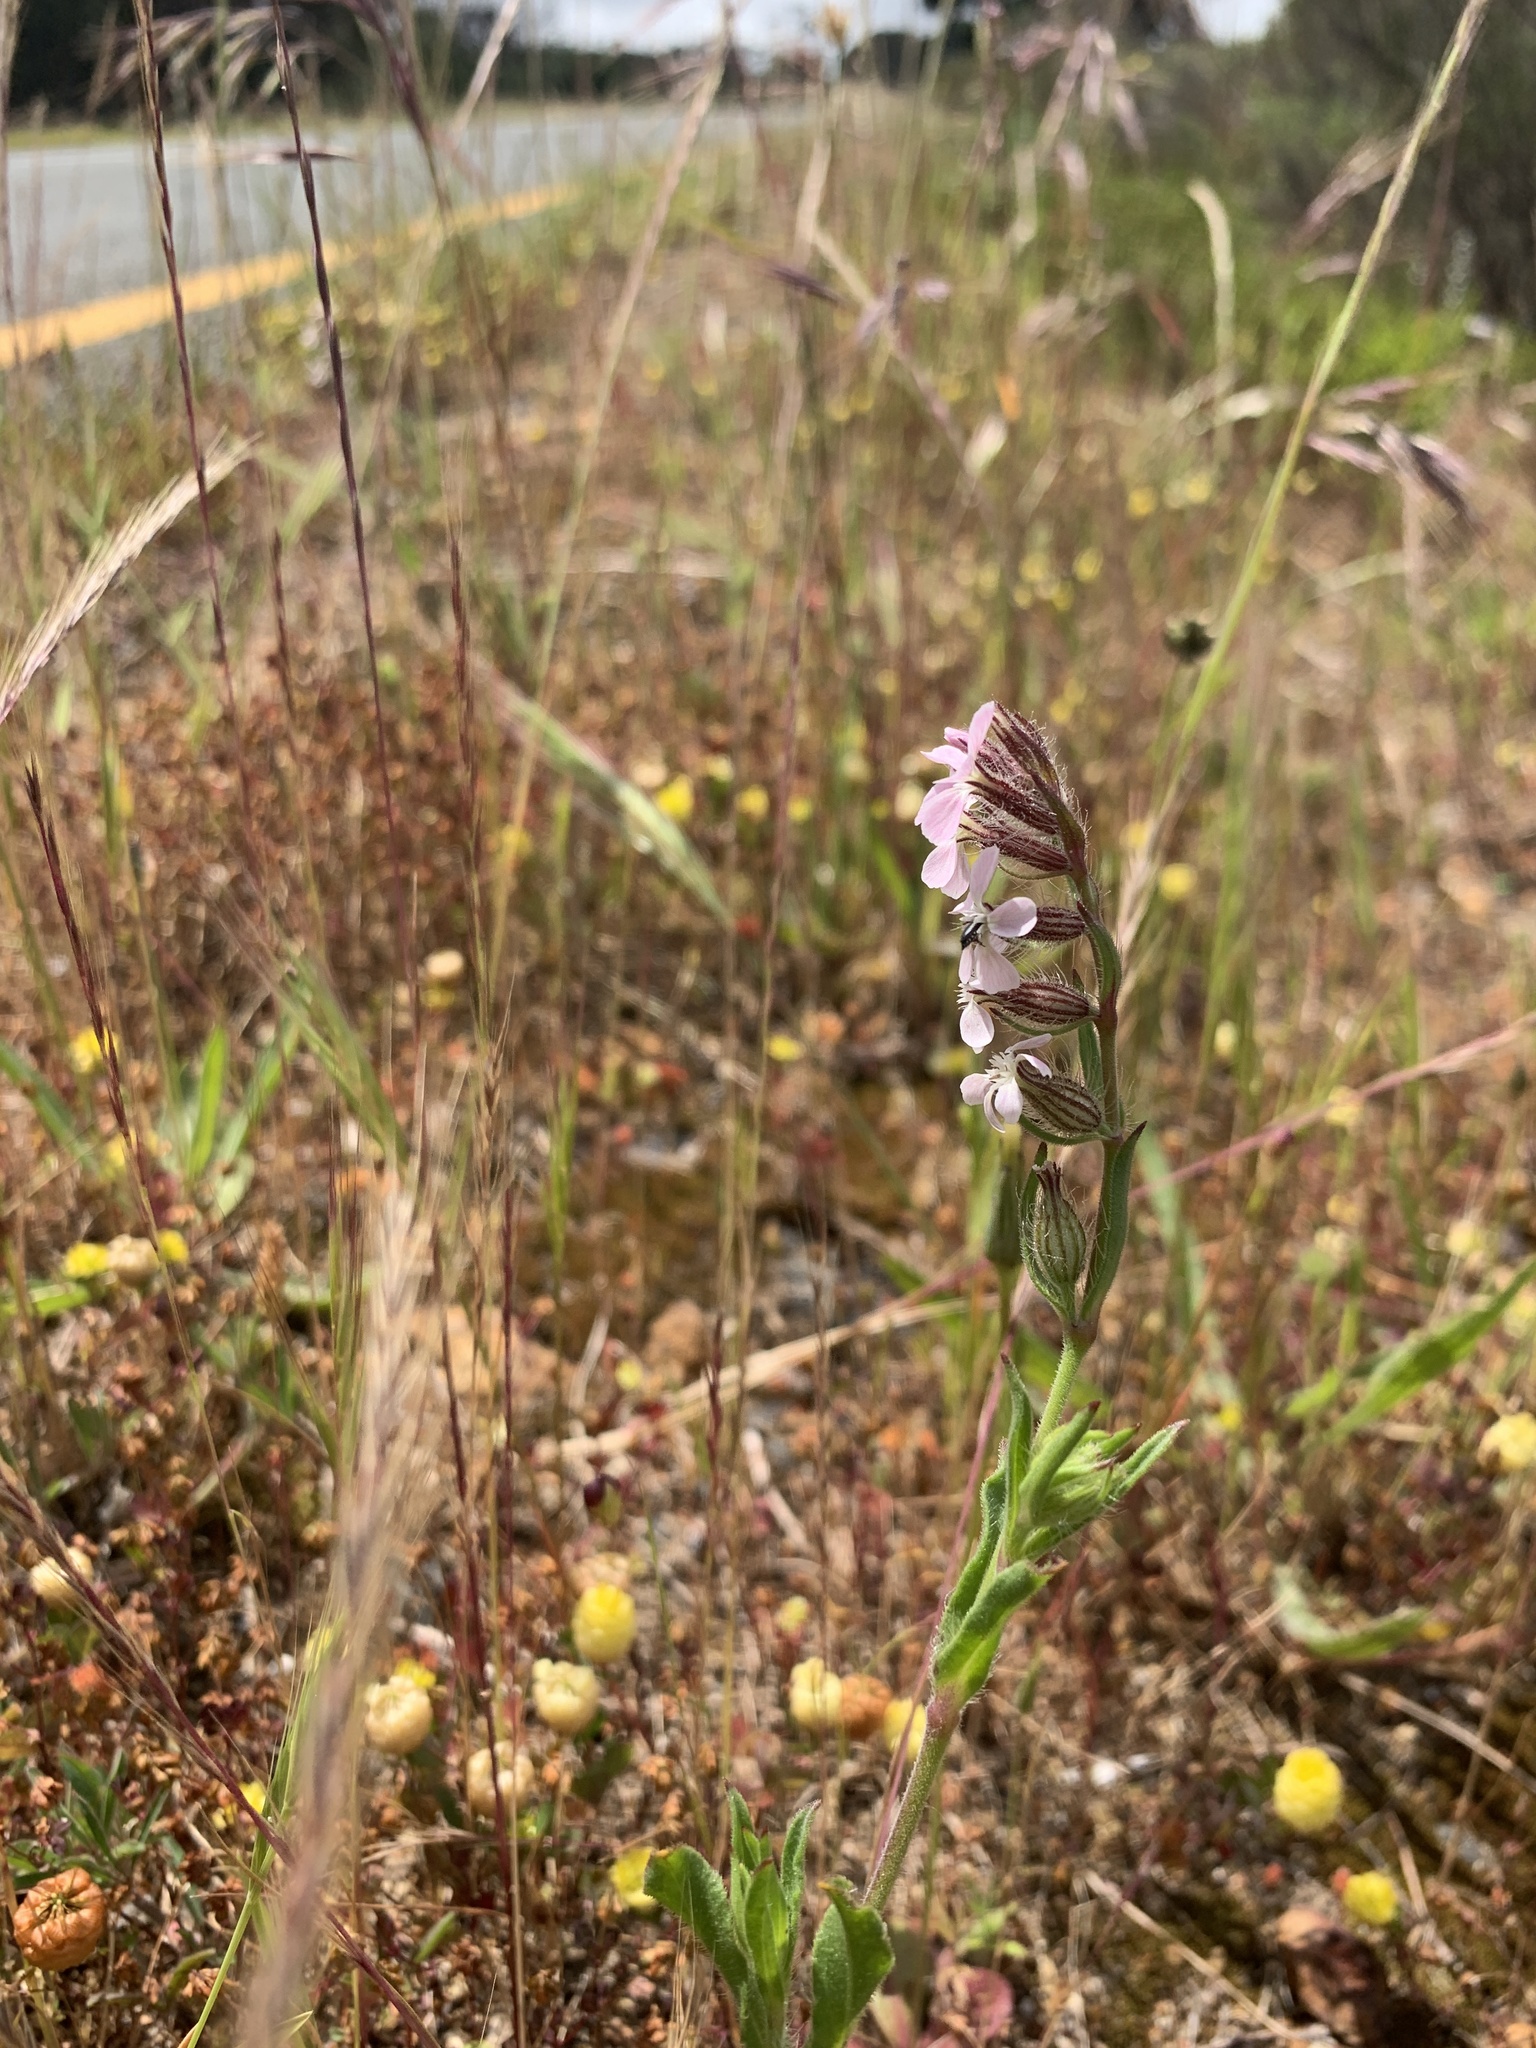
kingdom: Plantae
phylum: Tracheophyta
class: Magnoliopsida
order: Caryophyllales
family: Caryophyllaceae
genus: Silene
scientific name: Silene gallica
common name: Small-flowered catchfly
